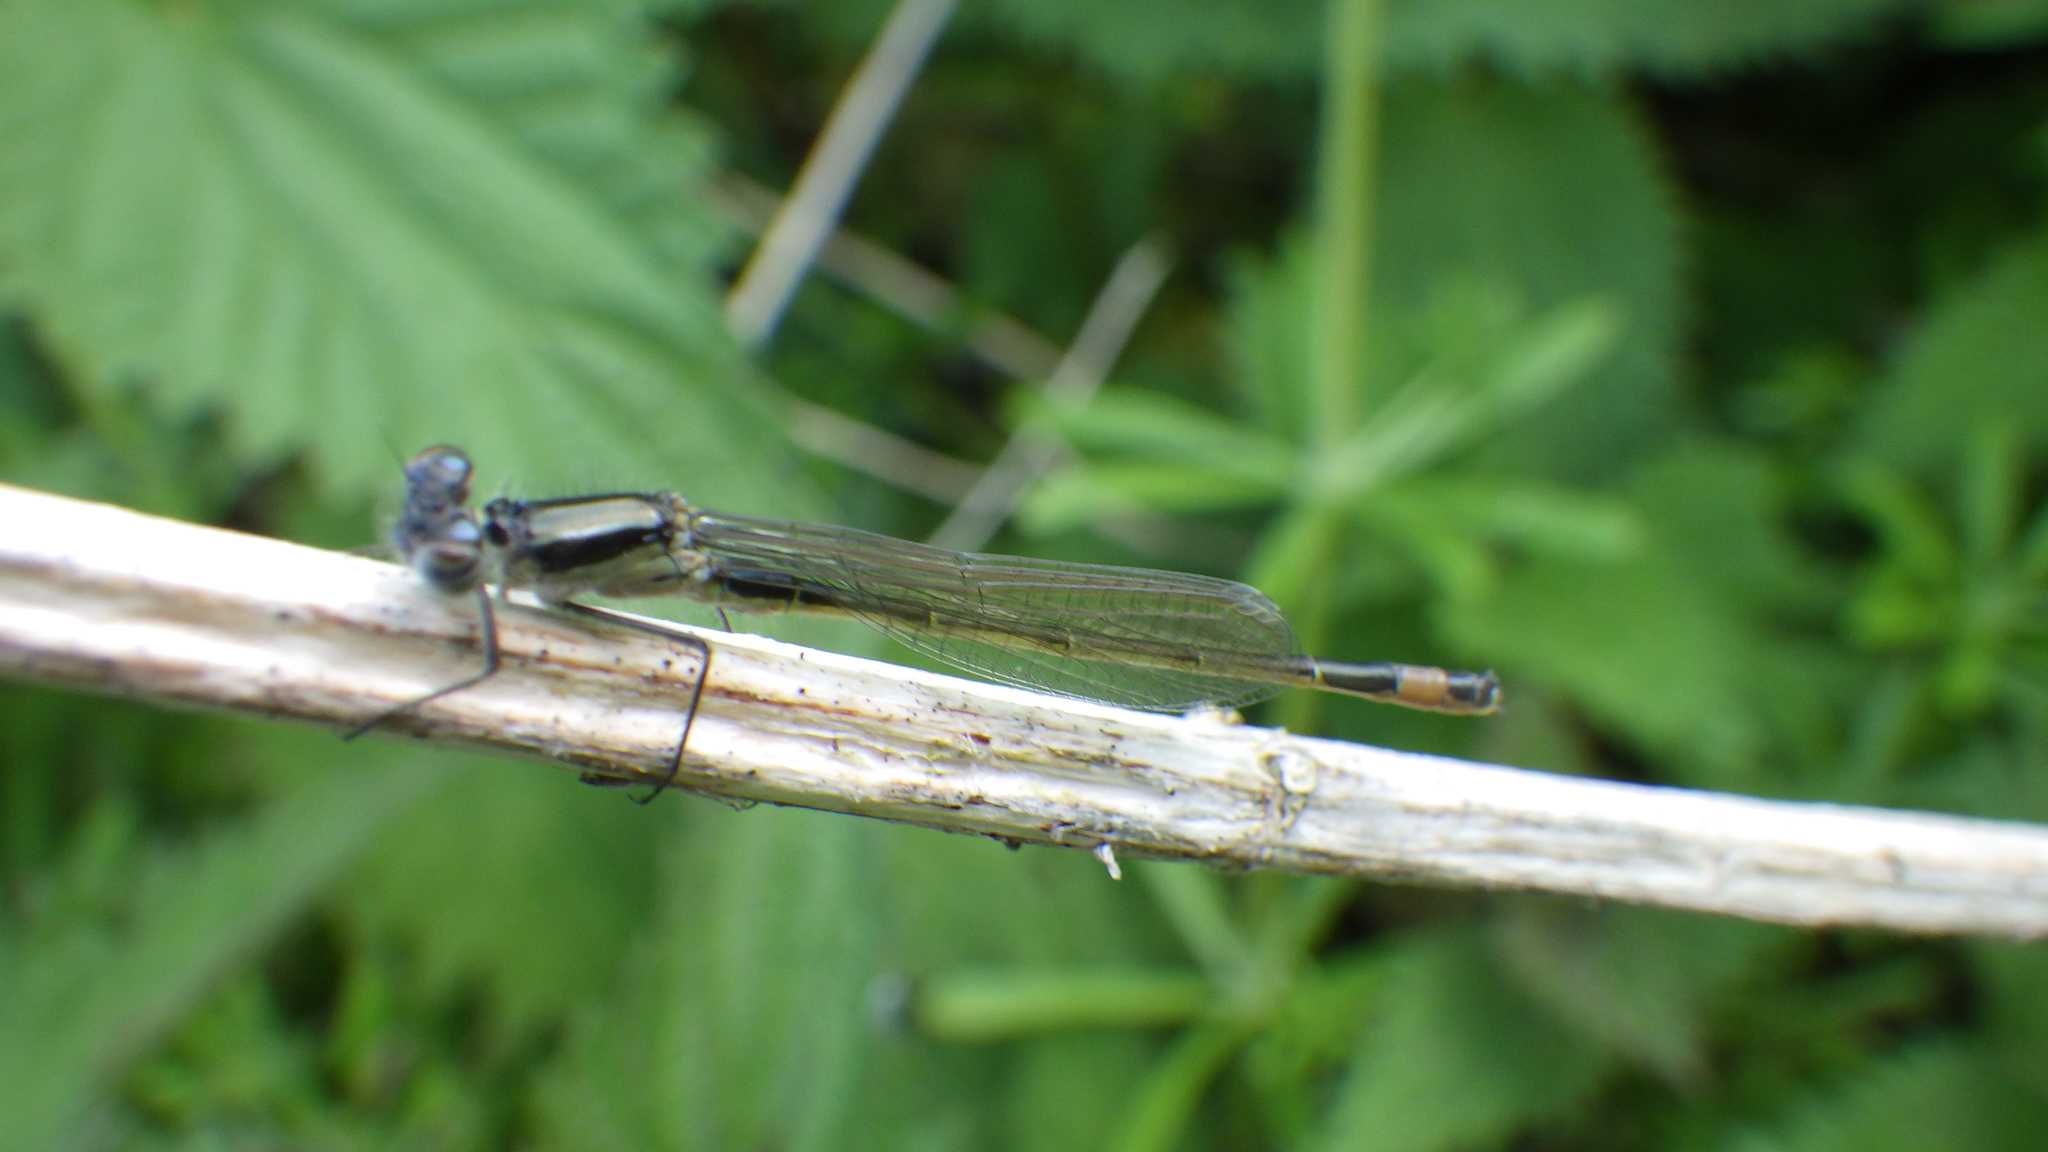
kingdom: Animalia
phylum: Arthropoda
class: Insecta
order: Odonata
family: Coenagrionidae
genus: Ischnura
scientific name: Ischnura elegans
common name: Blue-tailed damselfly
